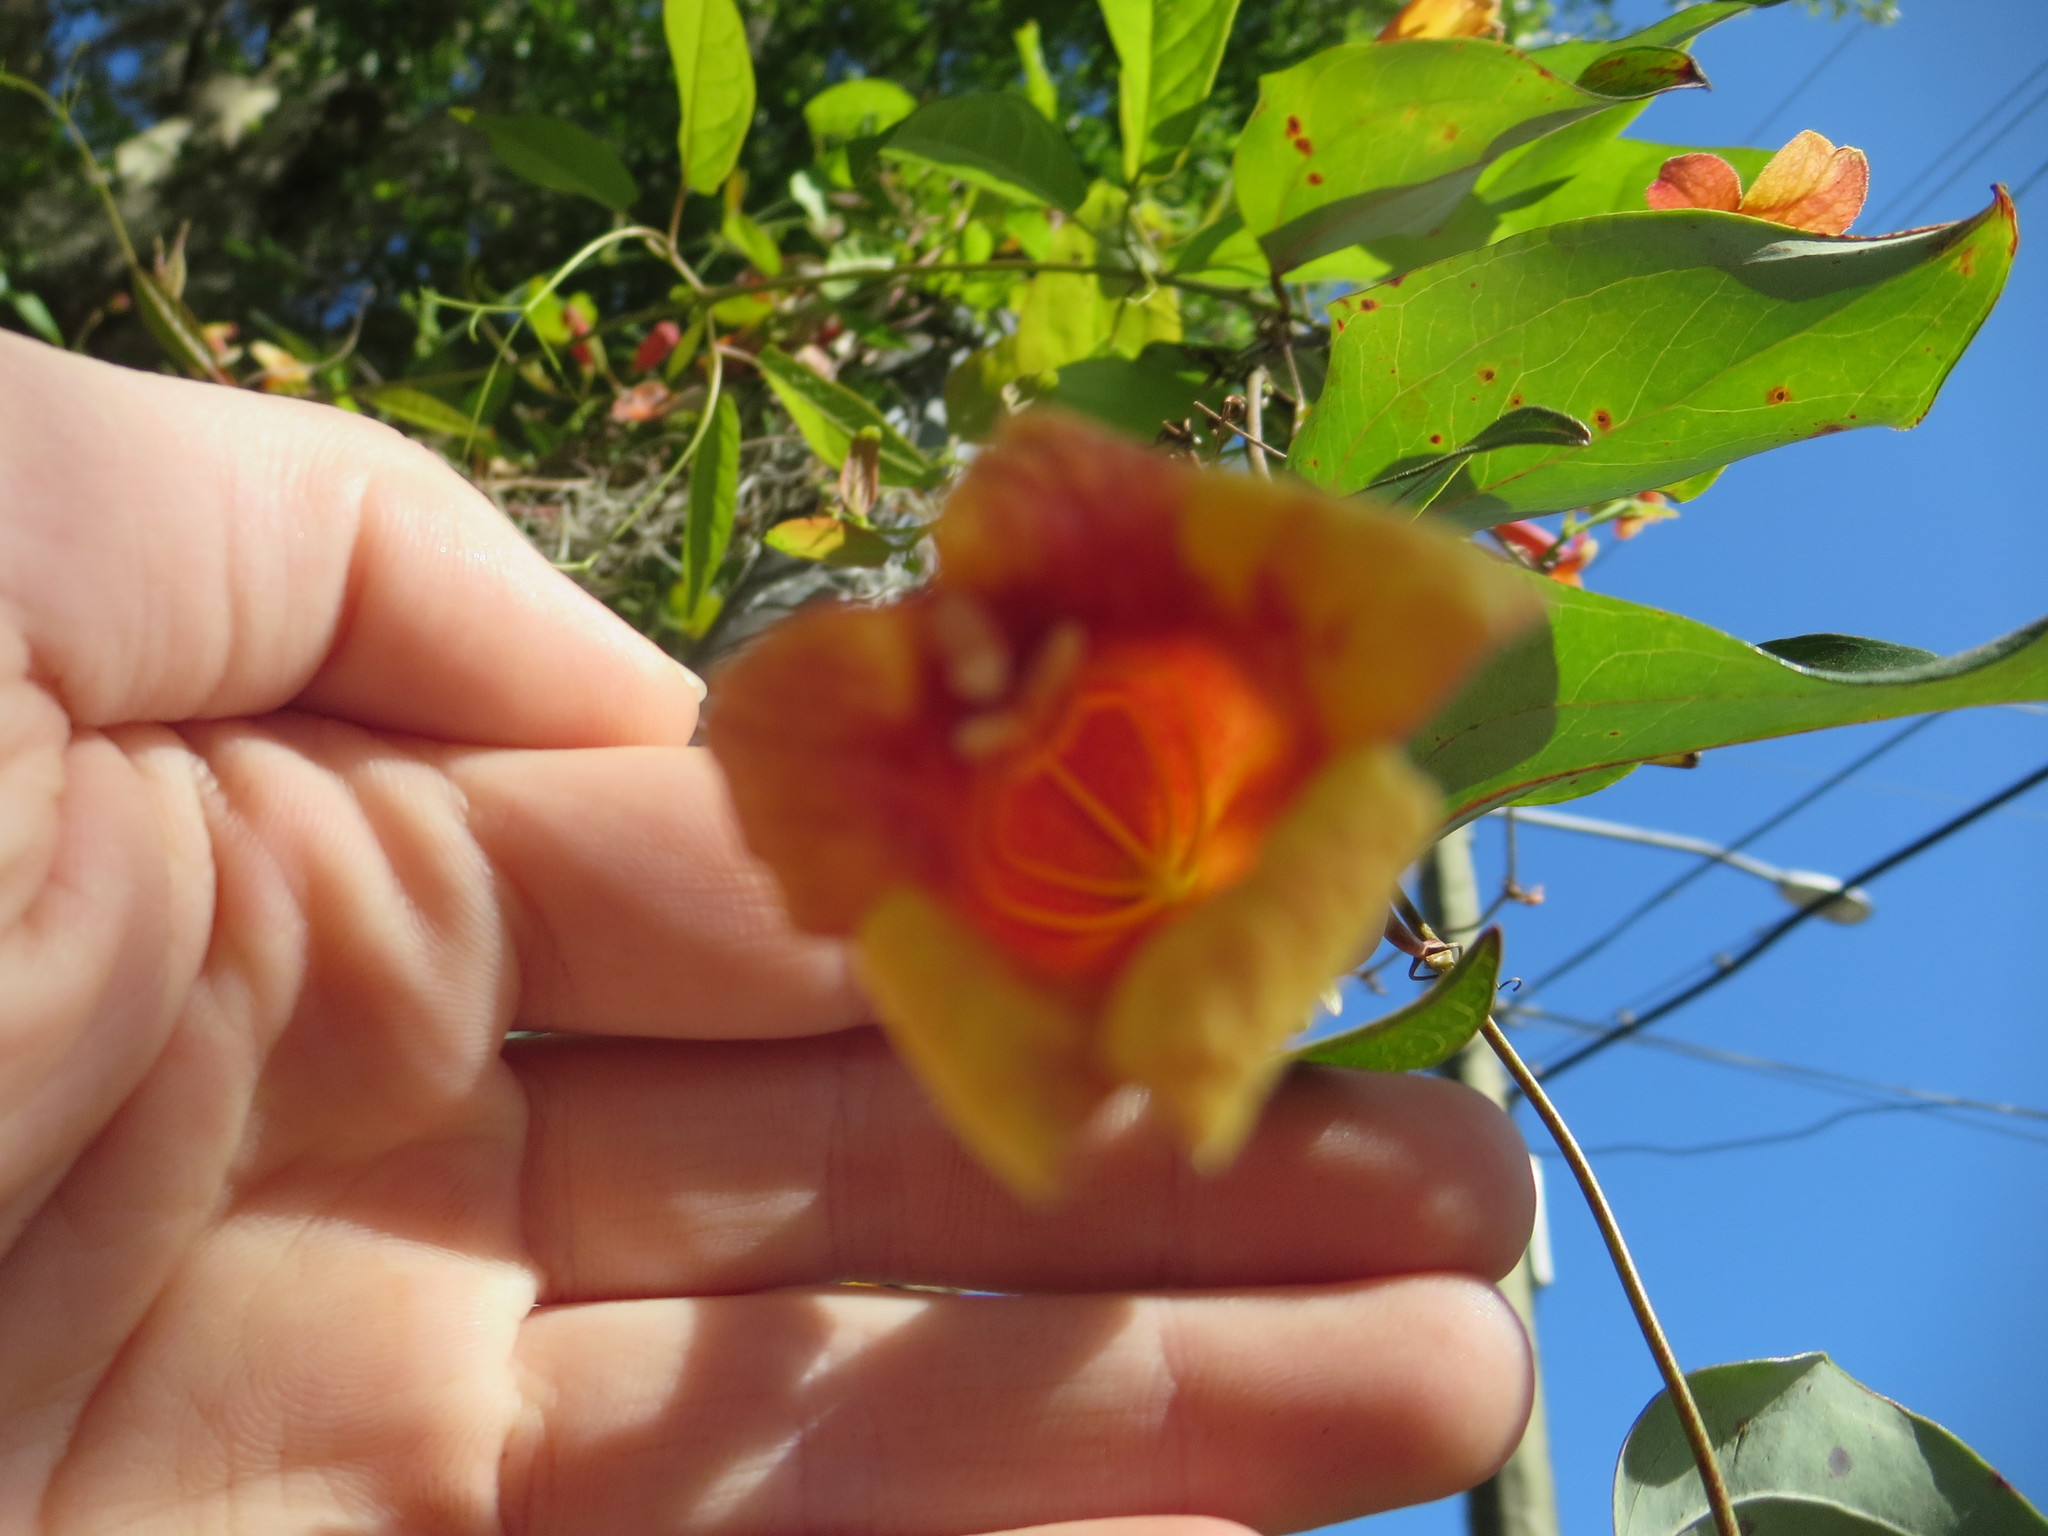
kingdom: Plantae
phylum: Tracheophyta
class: Magnoliopsida
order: Lamiales
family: Bignoniaceae
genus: Bignonia
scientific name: Bignonia capreolata
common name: Crossvine
